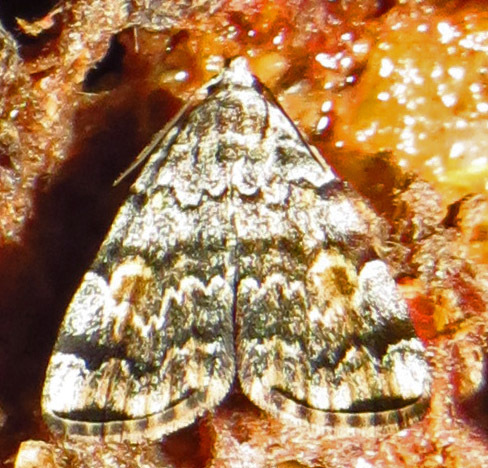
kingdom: Animalia
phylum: Arthropoda
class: Insecta
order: Lepidoptera
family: Erebidae
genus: Idia
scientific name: Idia americalis
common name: American idia moth
